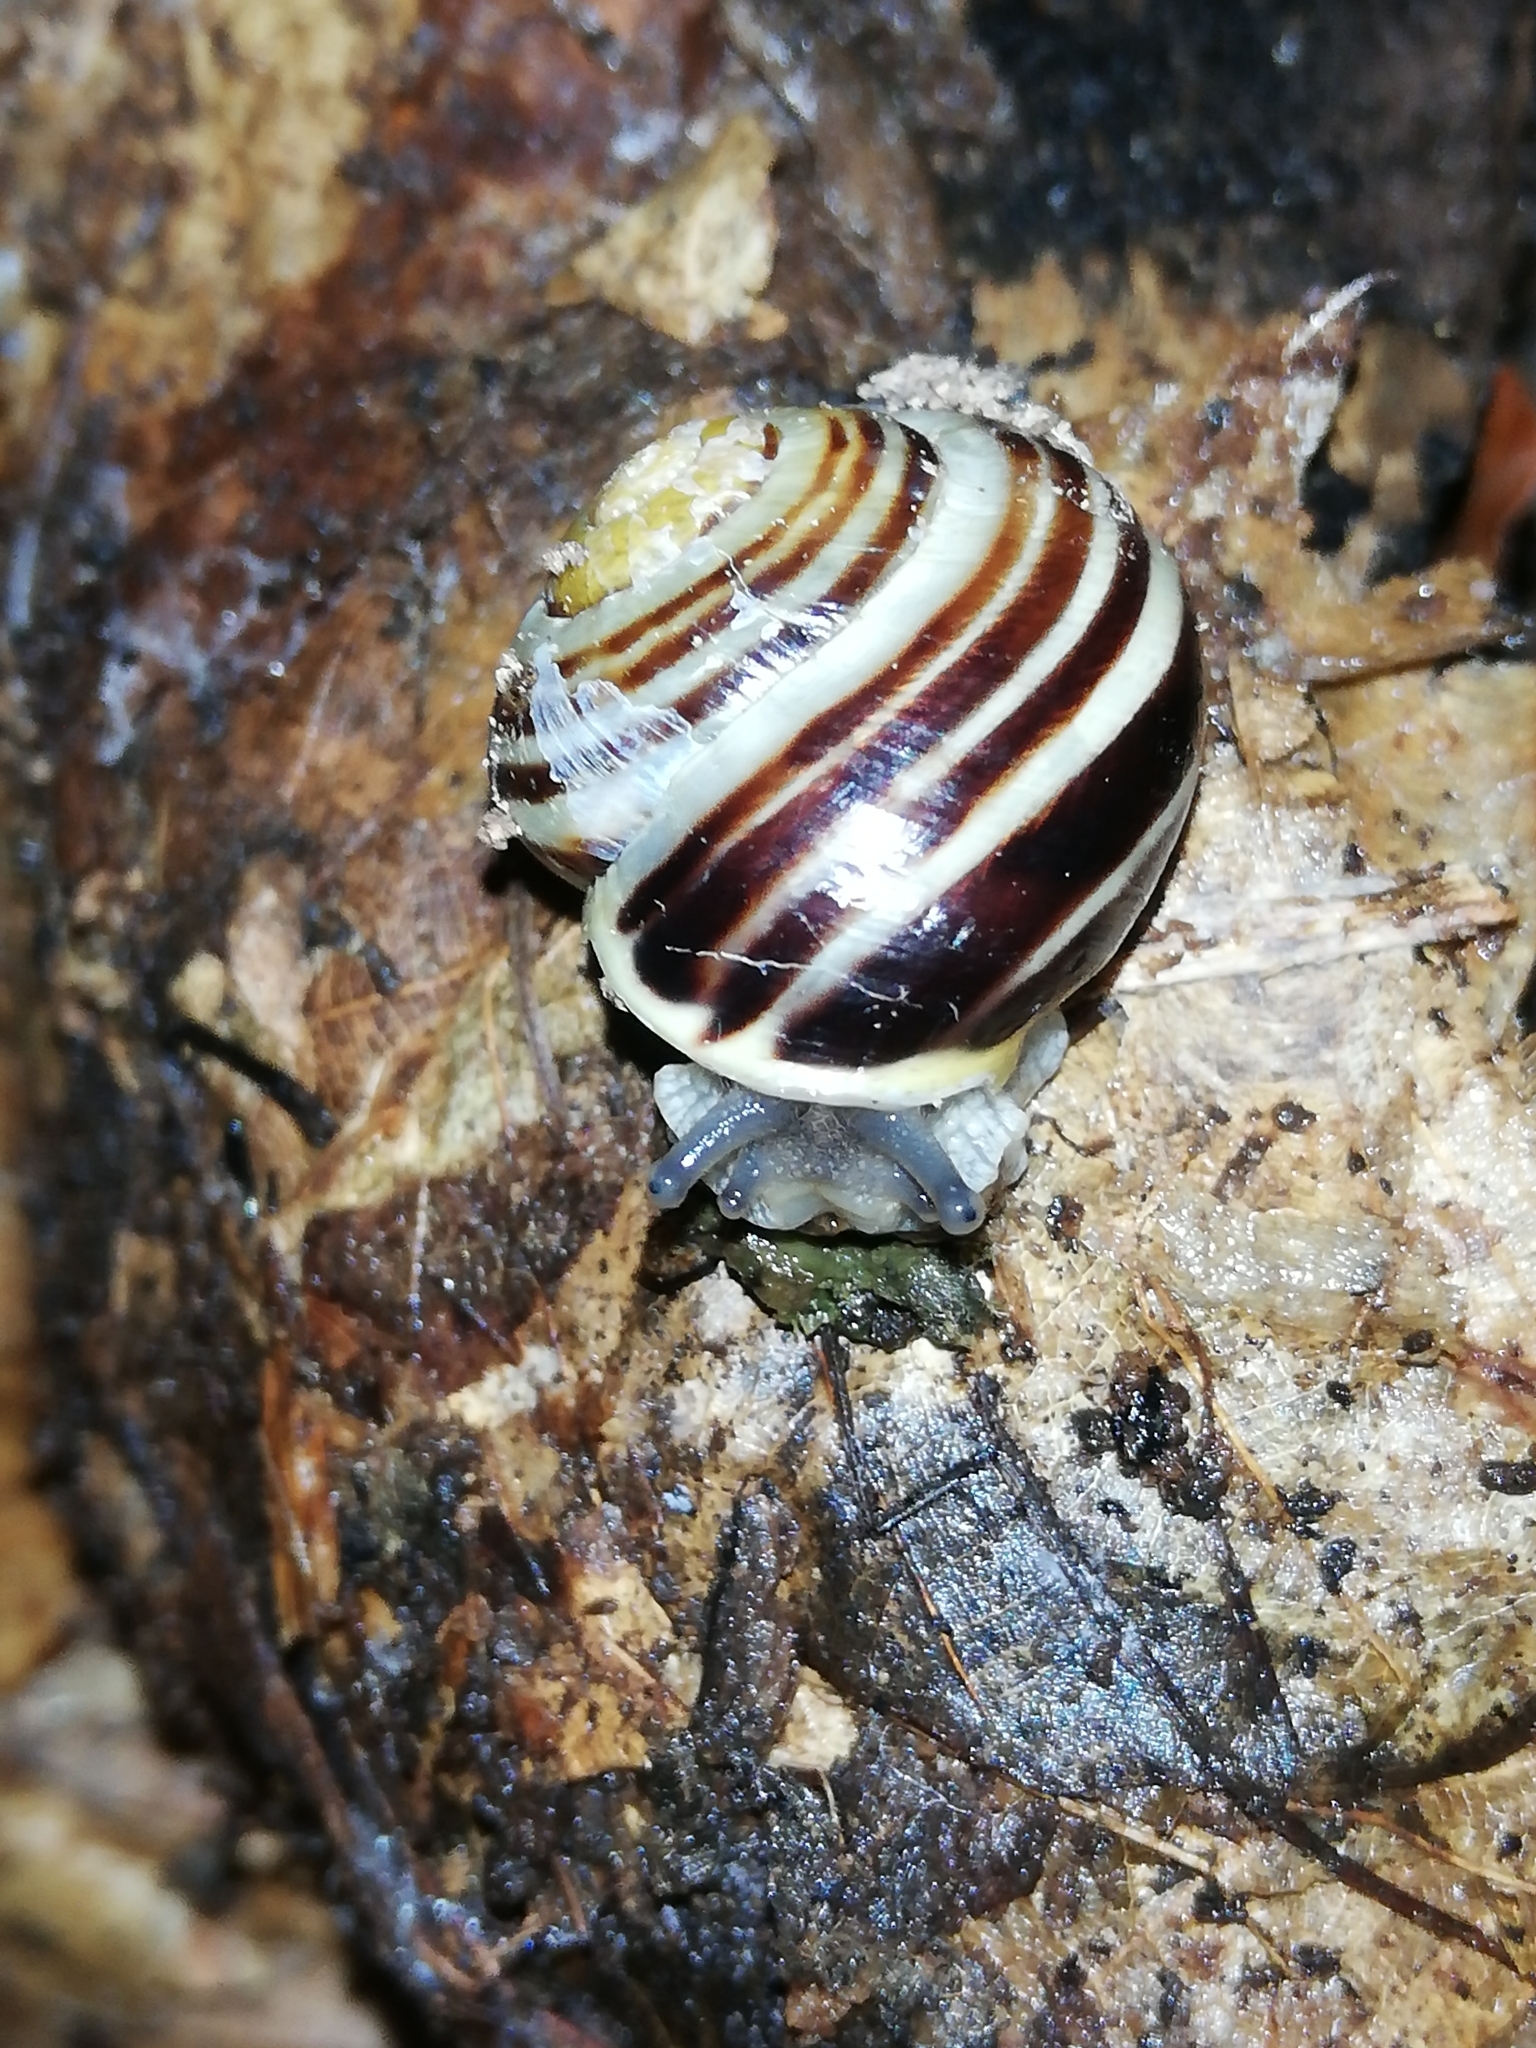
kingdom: Animalia
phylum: Mollusca
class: Gastropoda
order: Stylommatophora
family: Helicidae
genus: Cepaea
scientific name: Cepaea hortensis
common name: White-lip gardensnail
